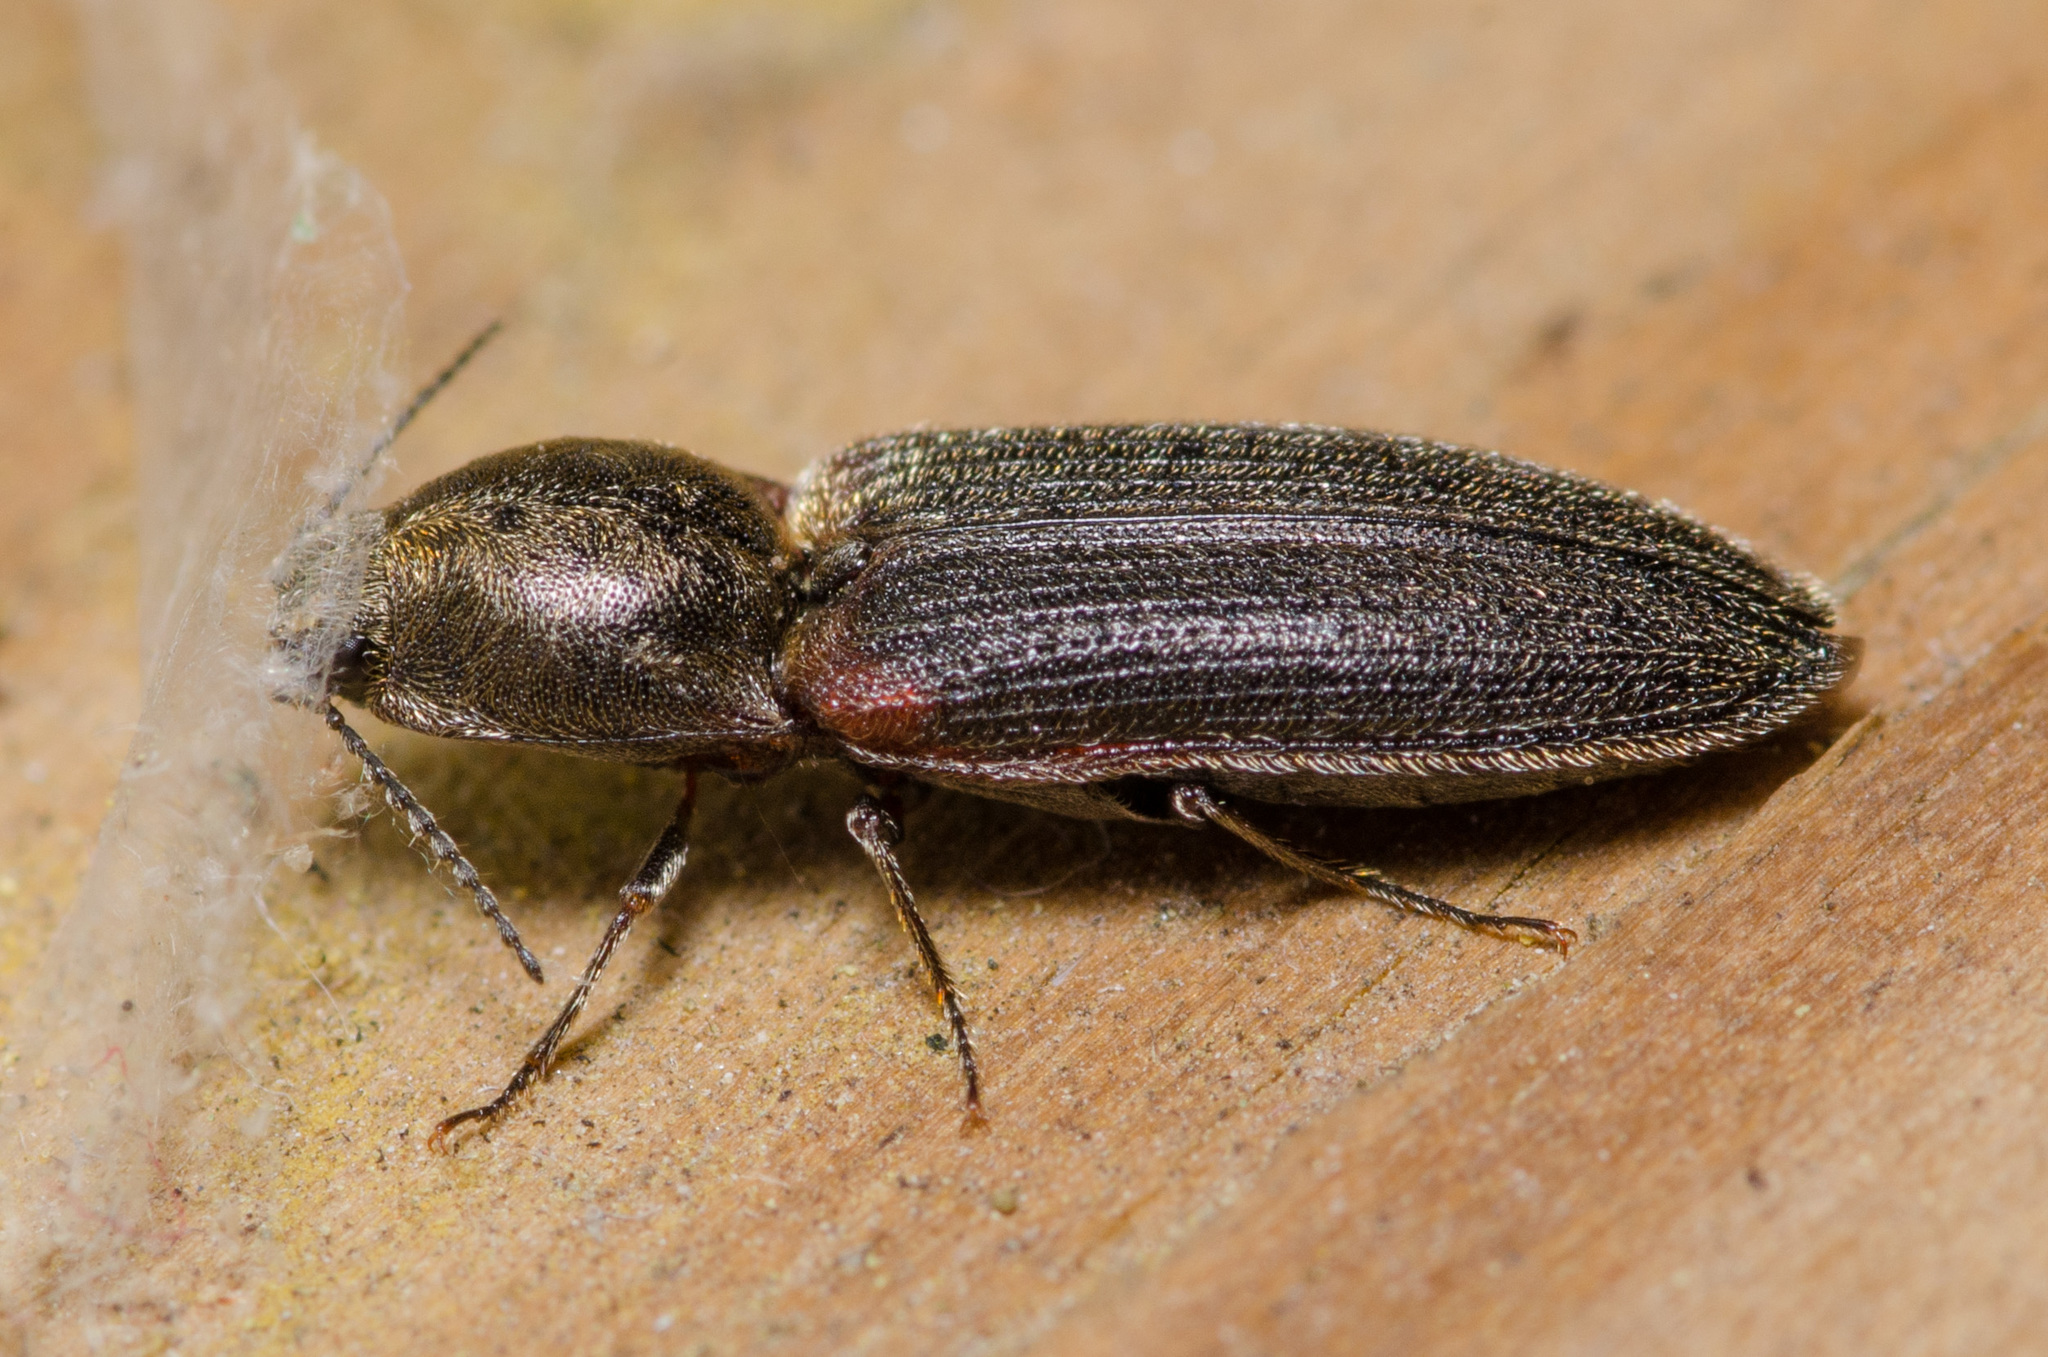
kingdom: Animalia
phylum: Arthropoda
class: Insecta
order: Coleoptera
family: Elateridae
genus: Limonius
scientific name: Limonius auripilis
